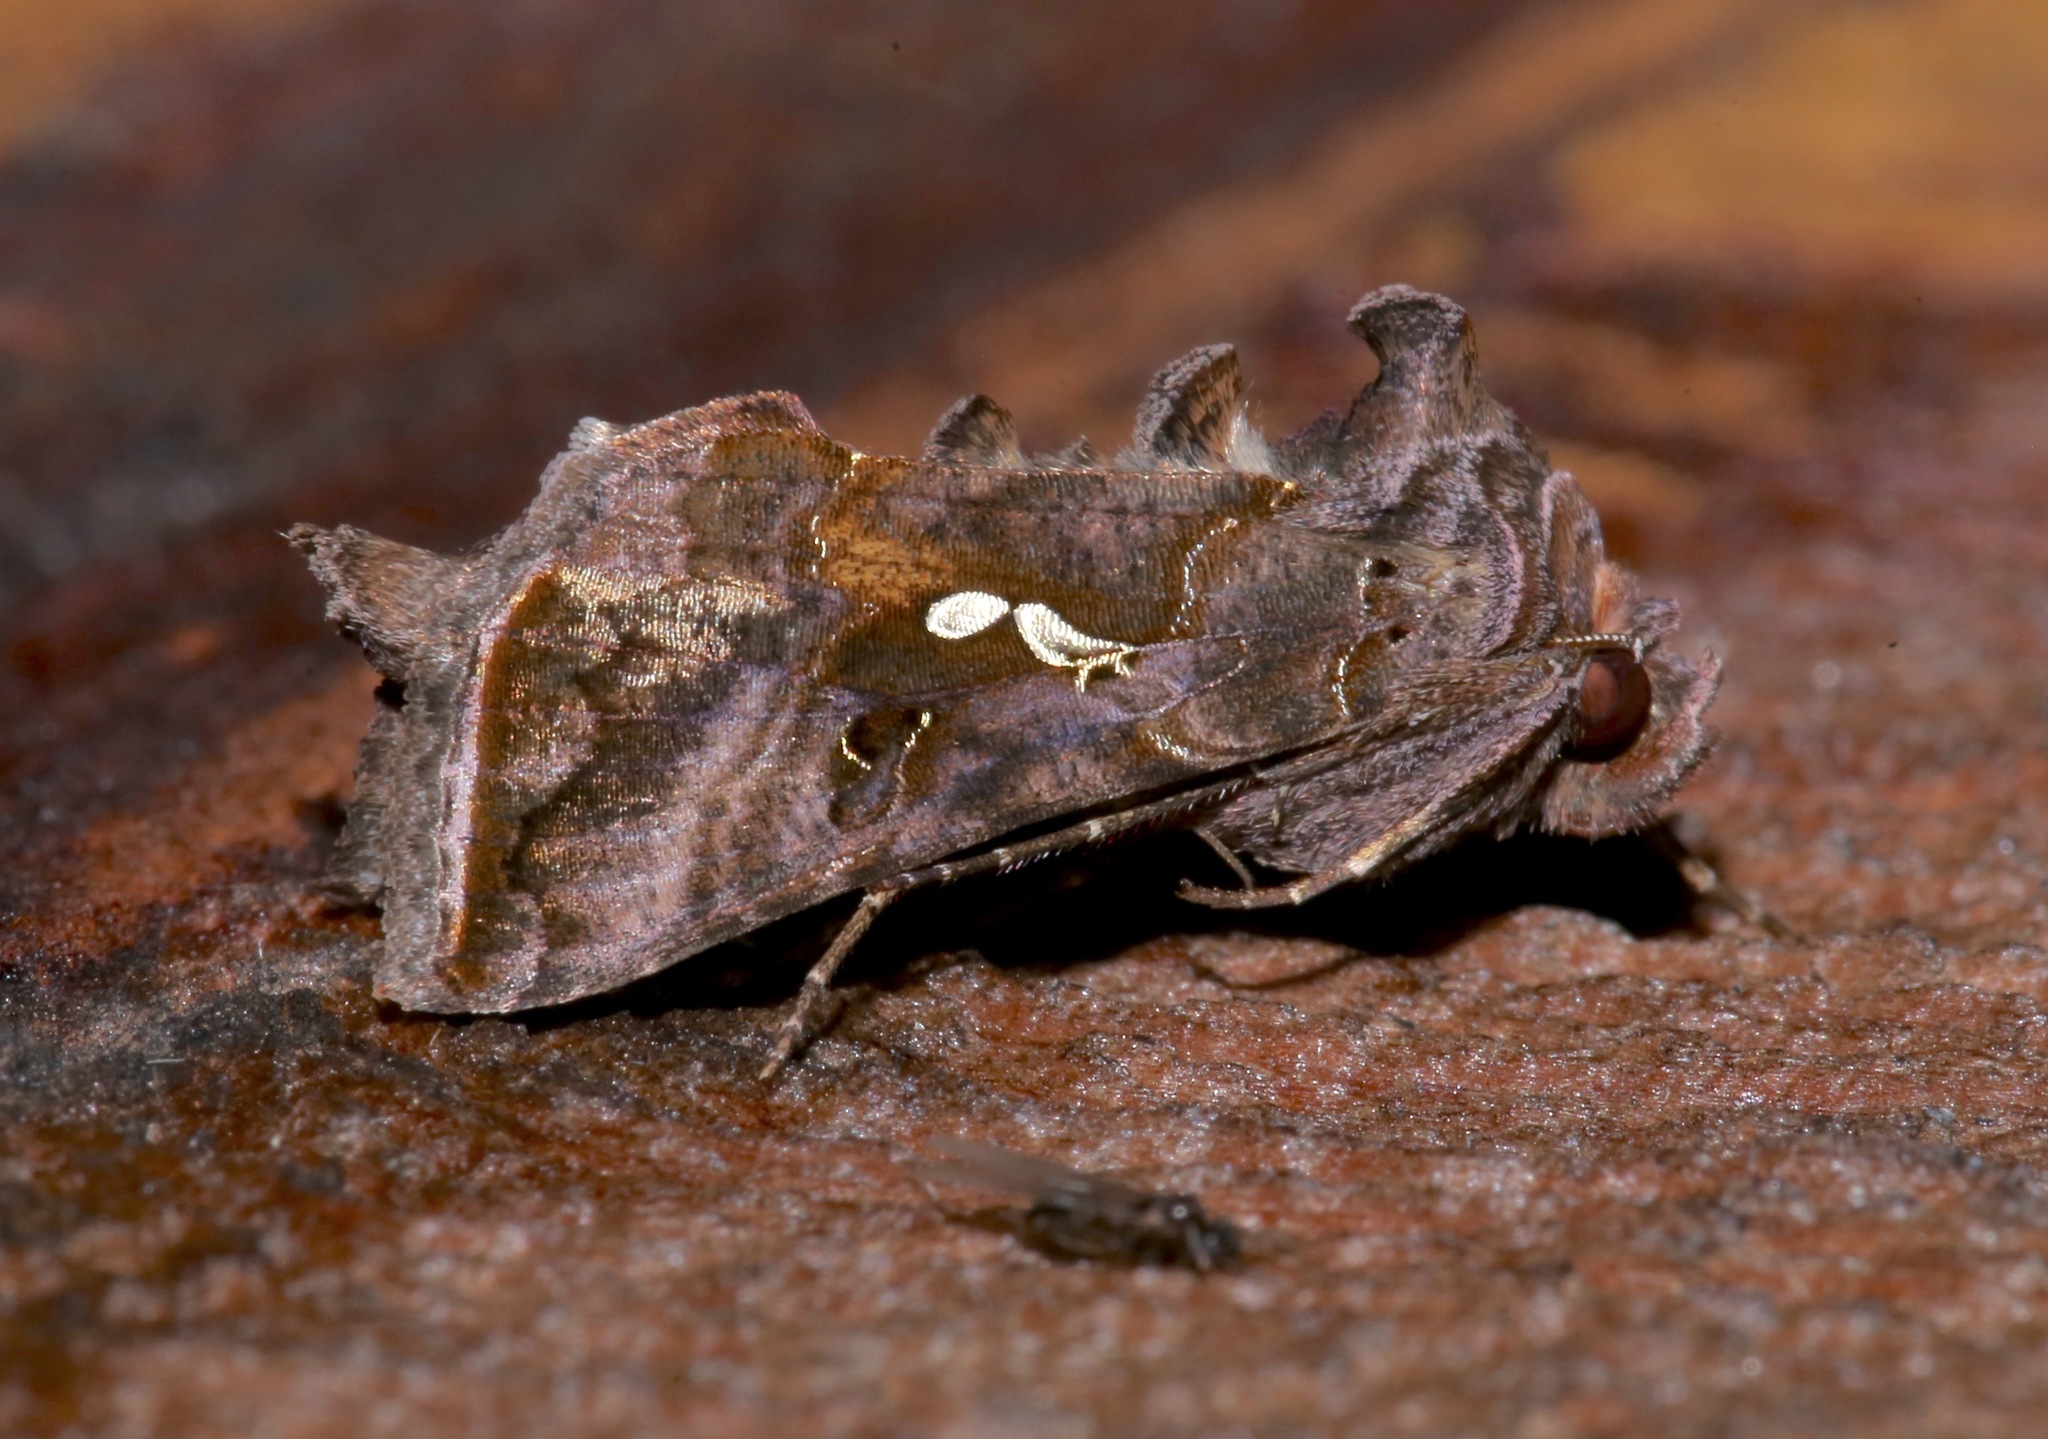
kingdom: Animalia
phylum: Arthropoda
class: Insecta
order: Lepidoptera
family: Noctuidae
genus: Autographa
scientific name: Autographa precationis
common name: Common looper moth
